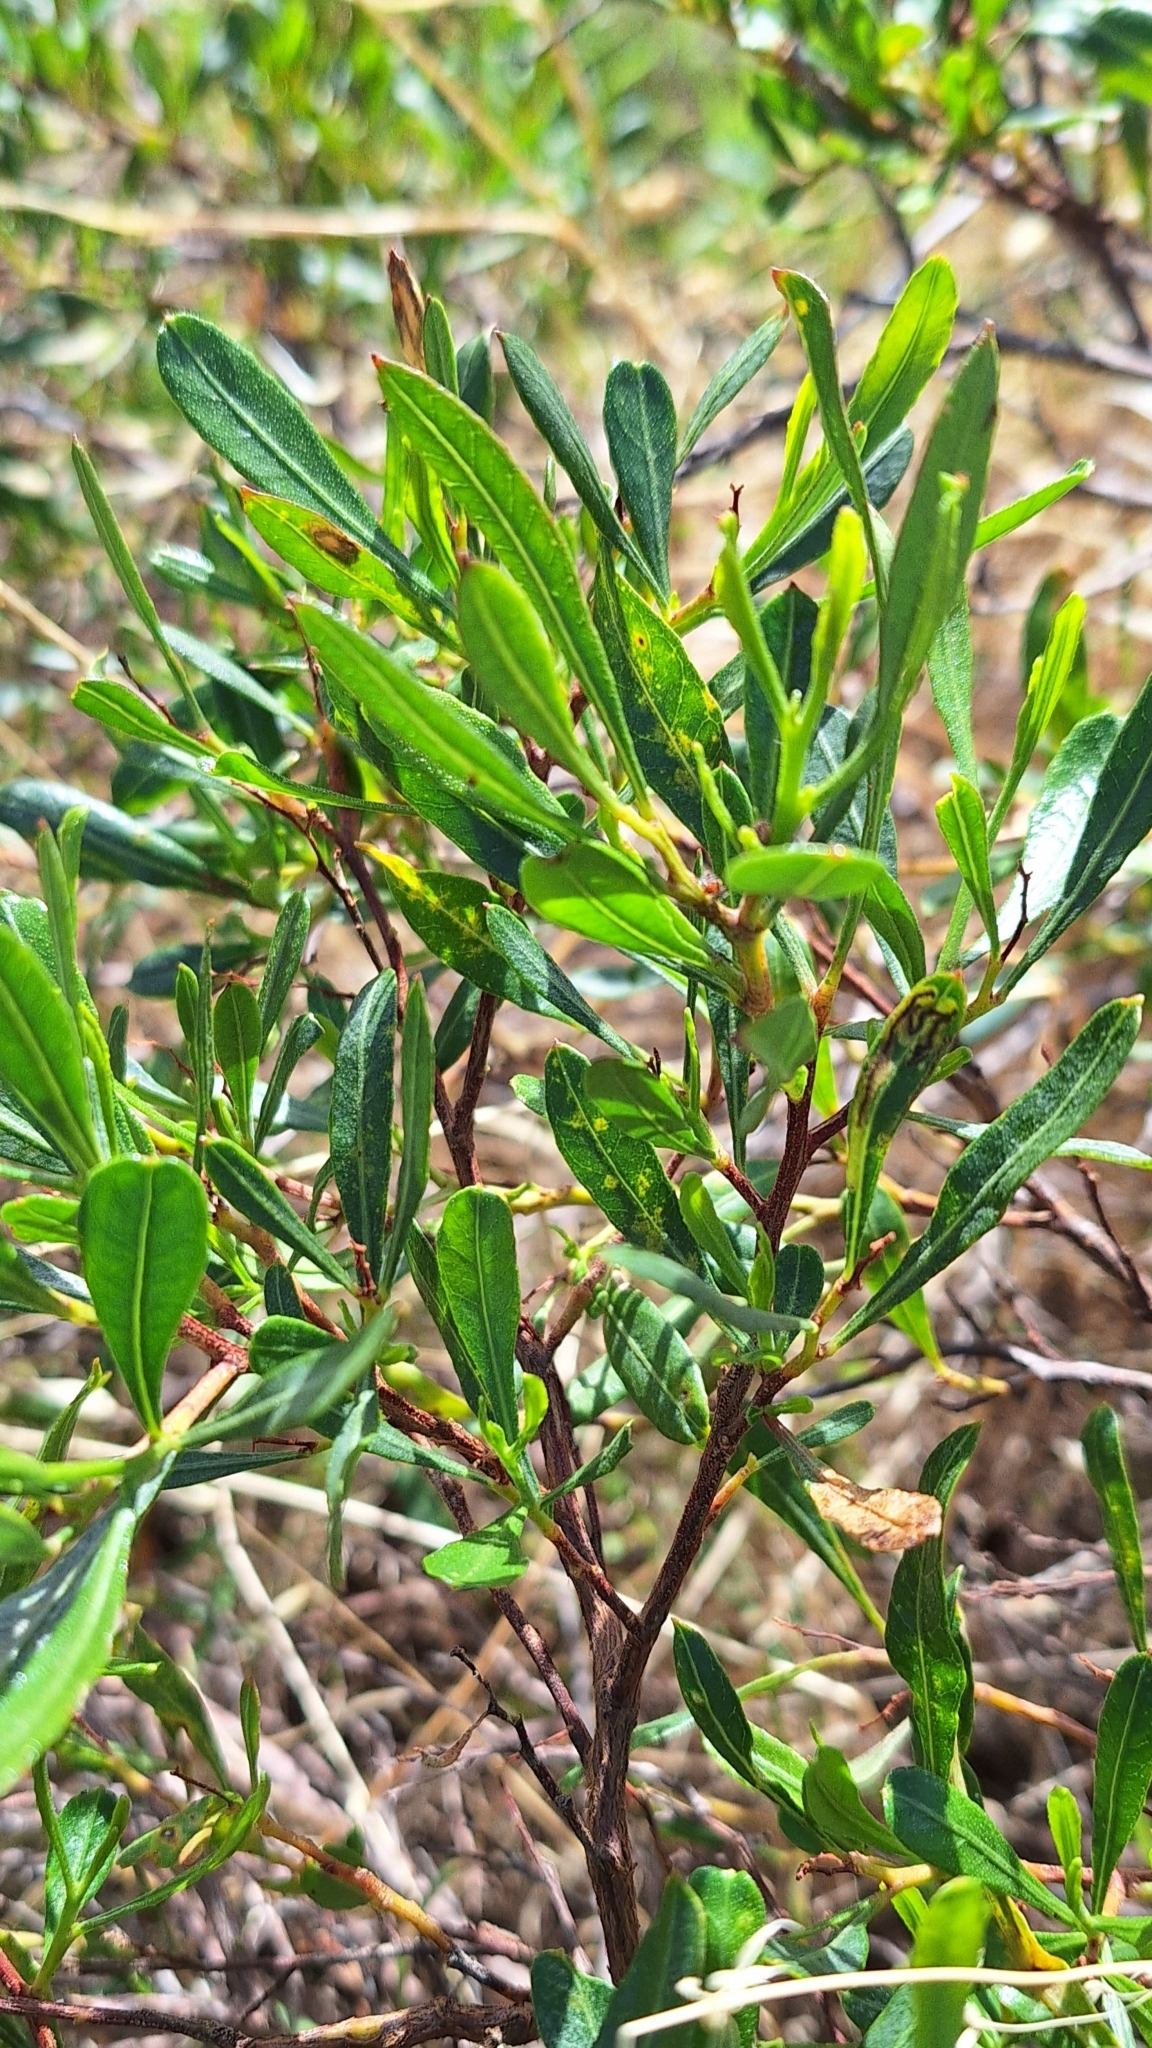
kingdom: Plantae
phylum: Tracheophyta
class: Magnoliopsida
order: Sapindales
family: Sapindaceae
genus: Dodonaea
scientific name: Dodonaea viscosa
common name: Hopbush
